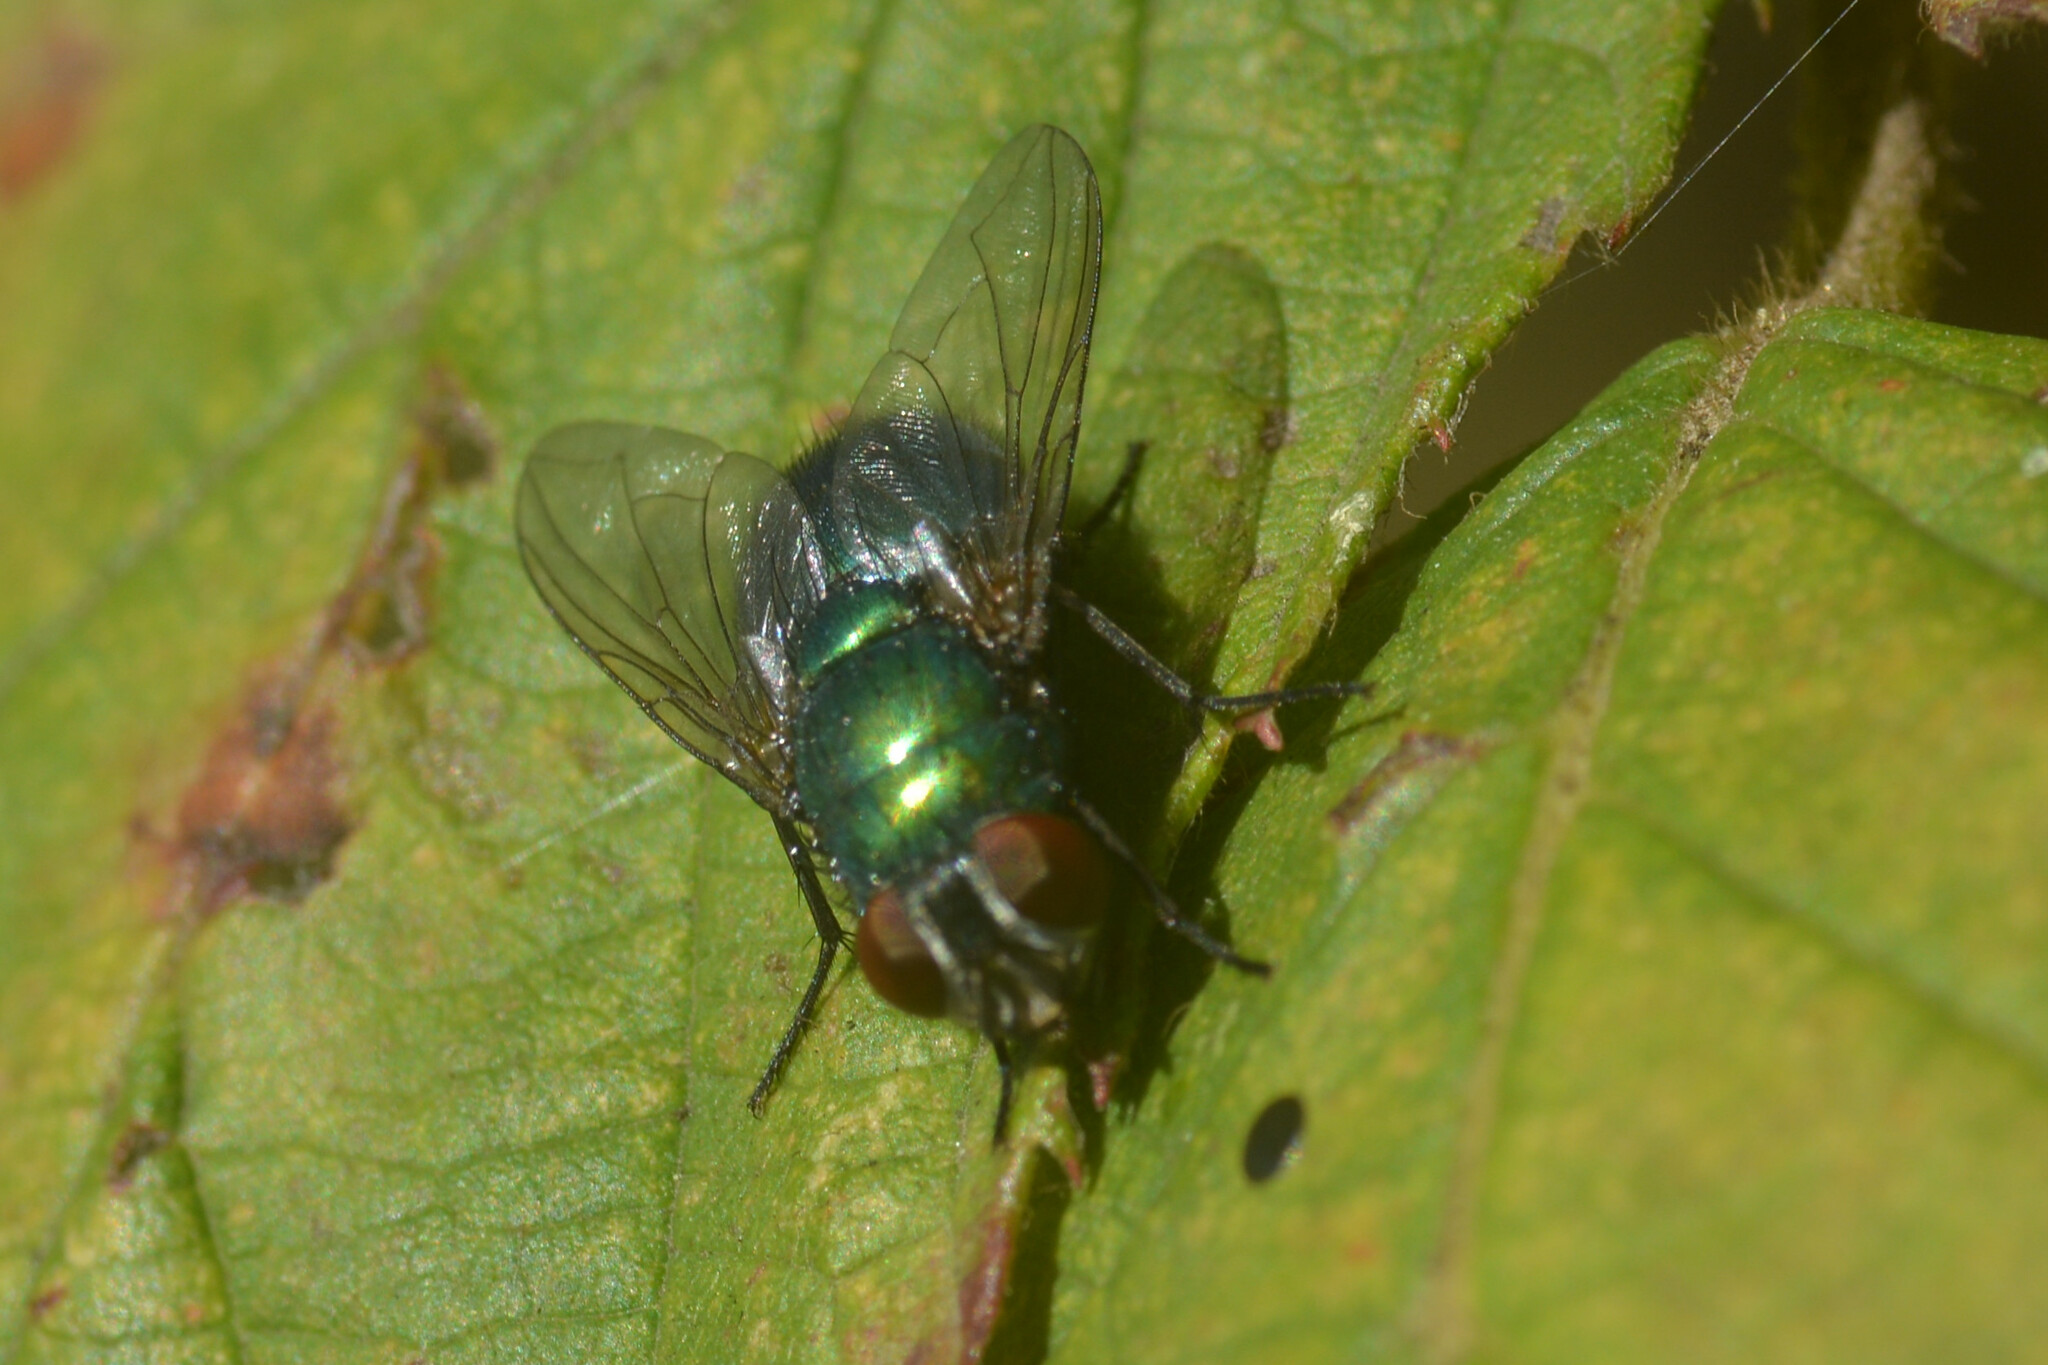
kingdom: Animalia
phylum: Arthropoda
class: Insecta
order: Diptera
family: Calliphoridae
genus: Lucilia
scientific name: Lucilia
